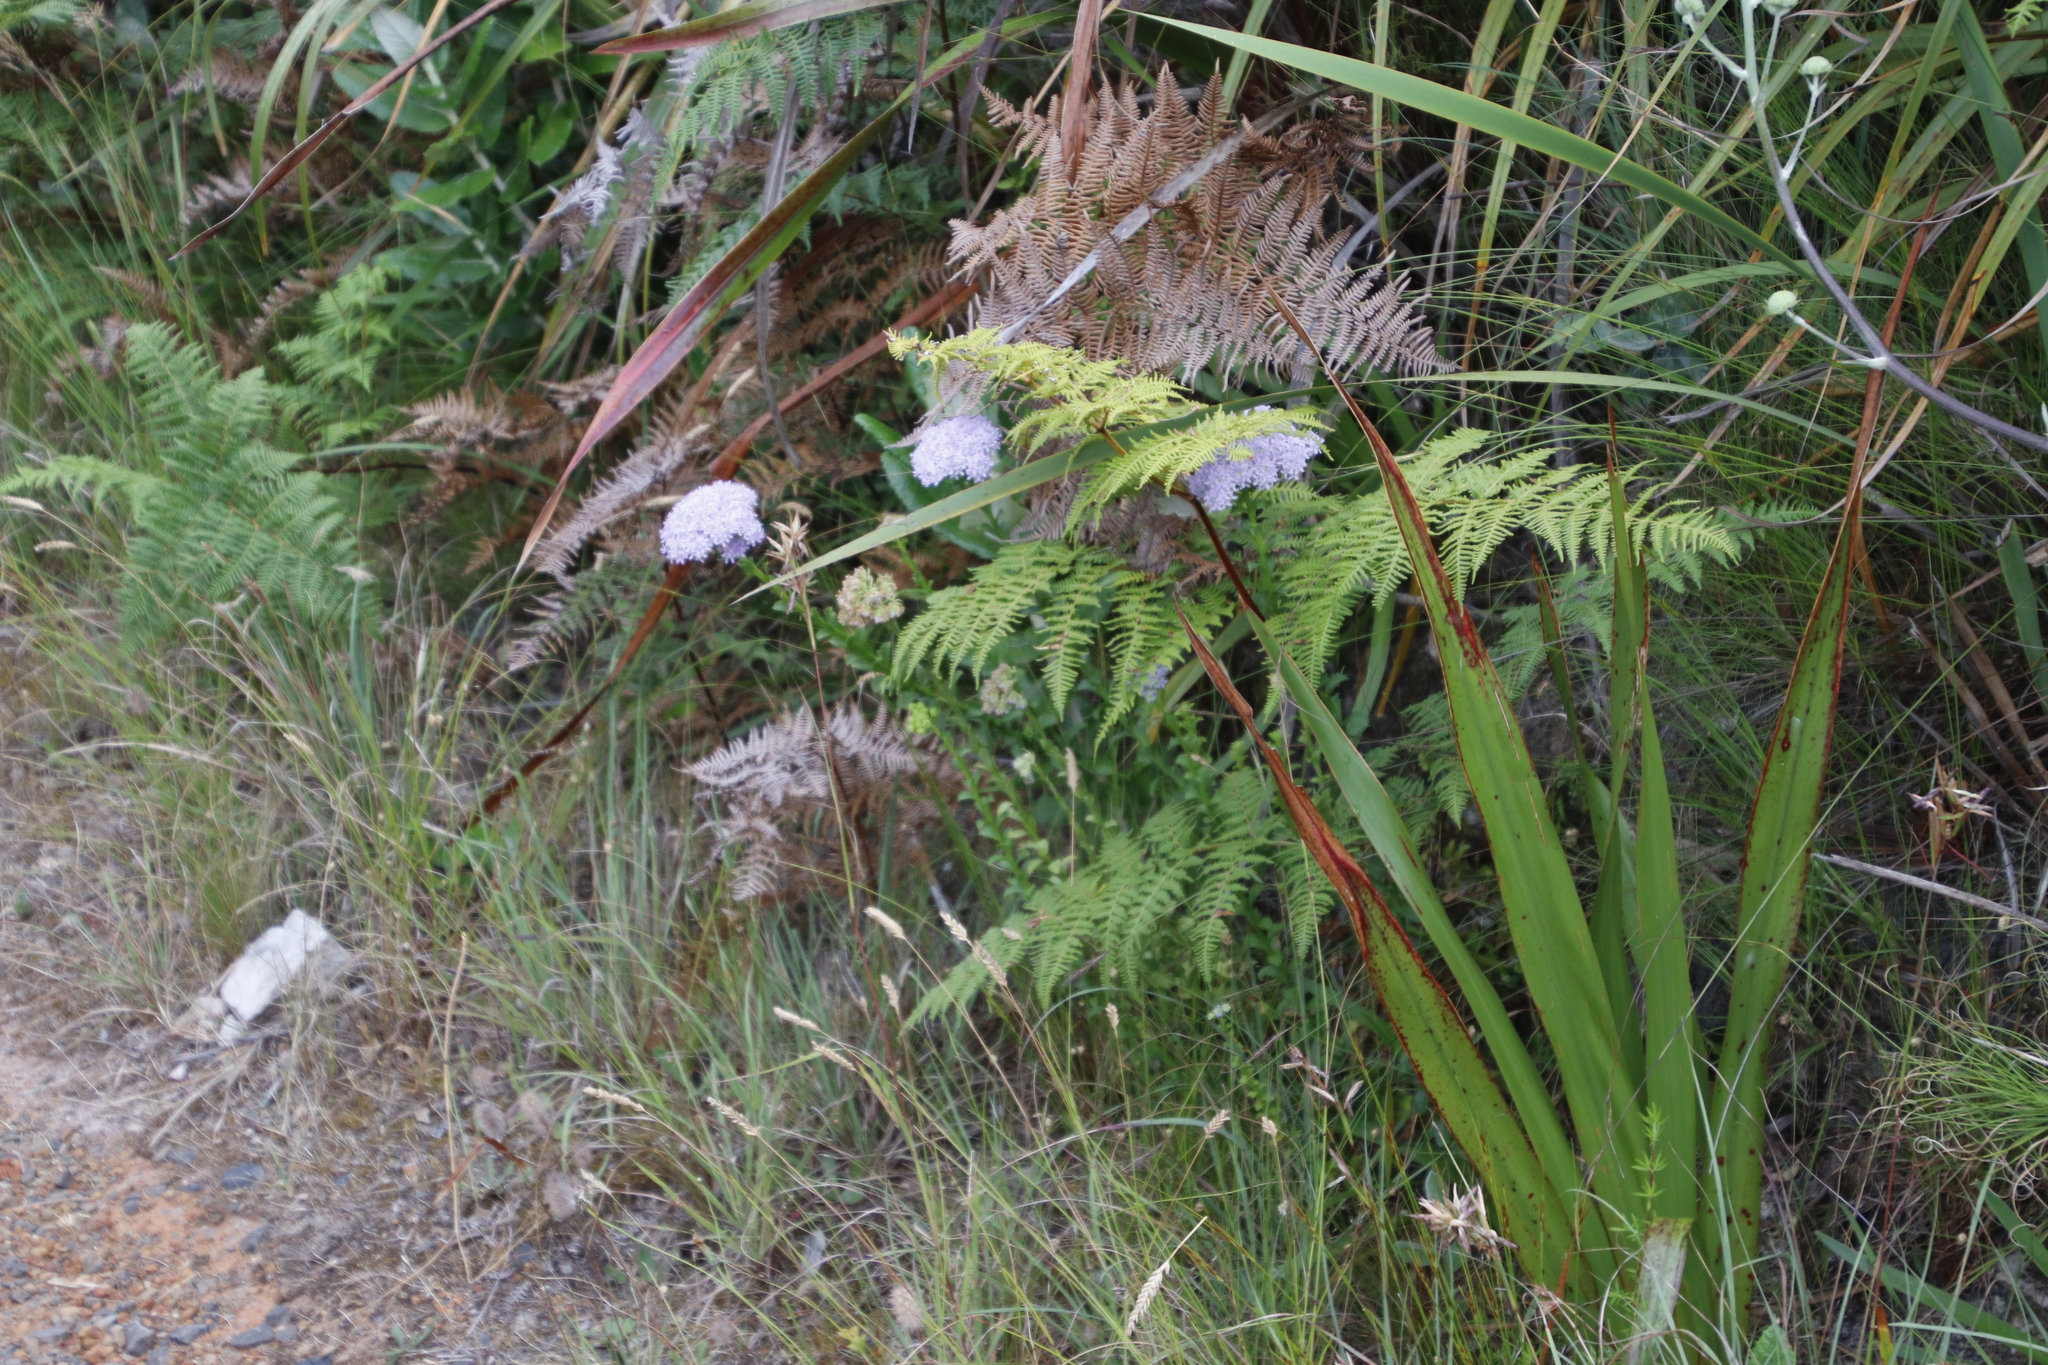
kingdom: Plantae
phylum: Tracheophyta
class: Magnoliopsida
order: Lamiales
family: Scrophulariaceae
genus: Pseudoselago
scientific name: Pseudoselago spuria
